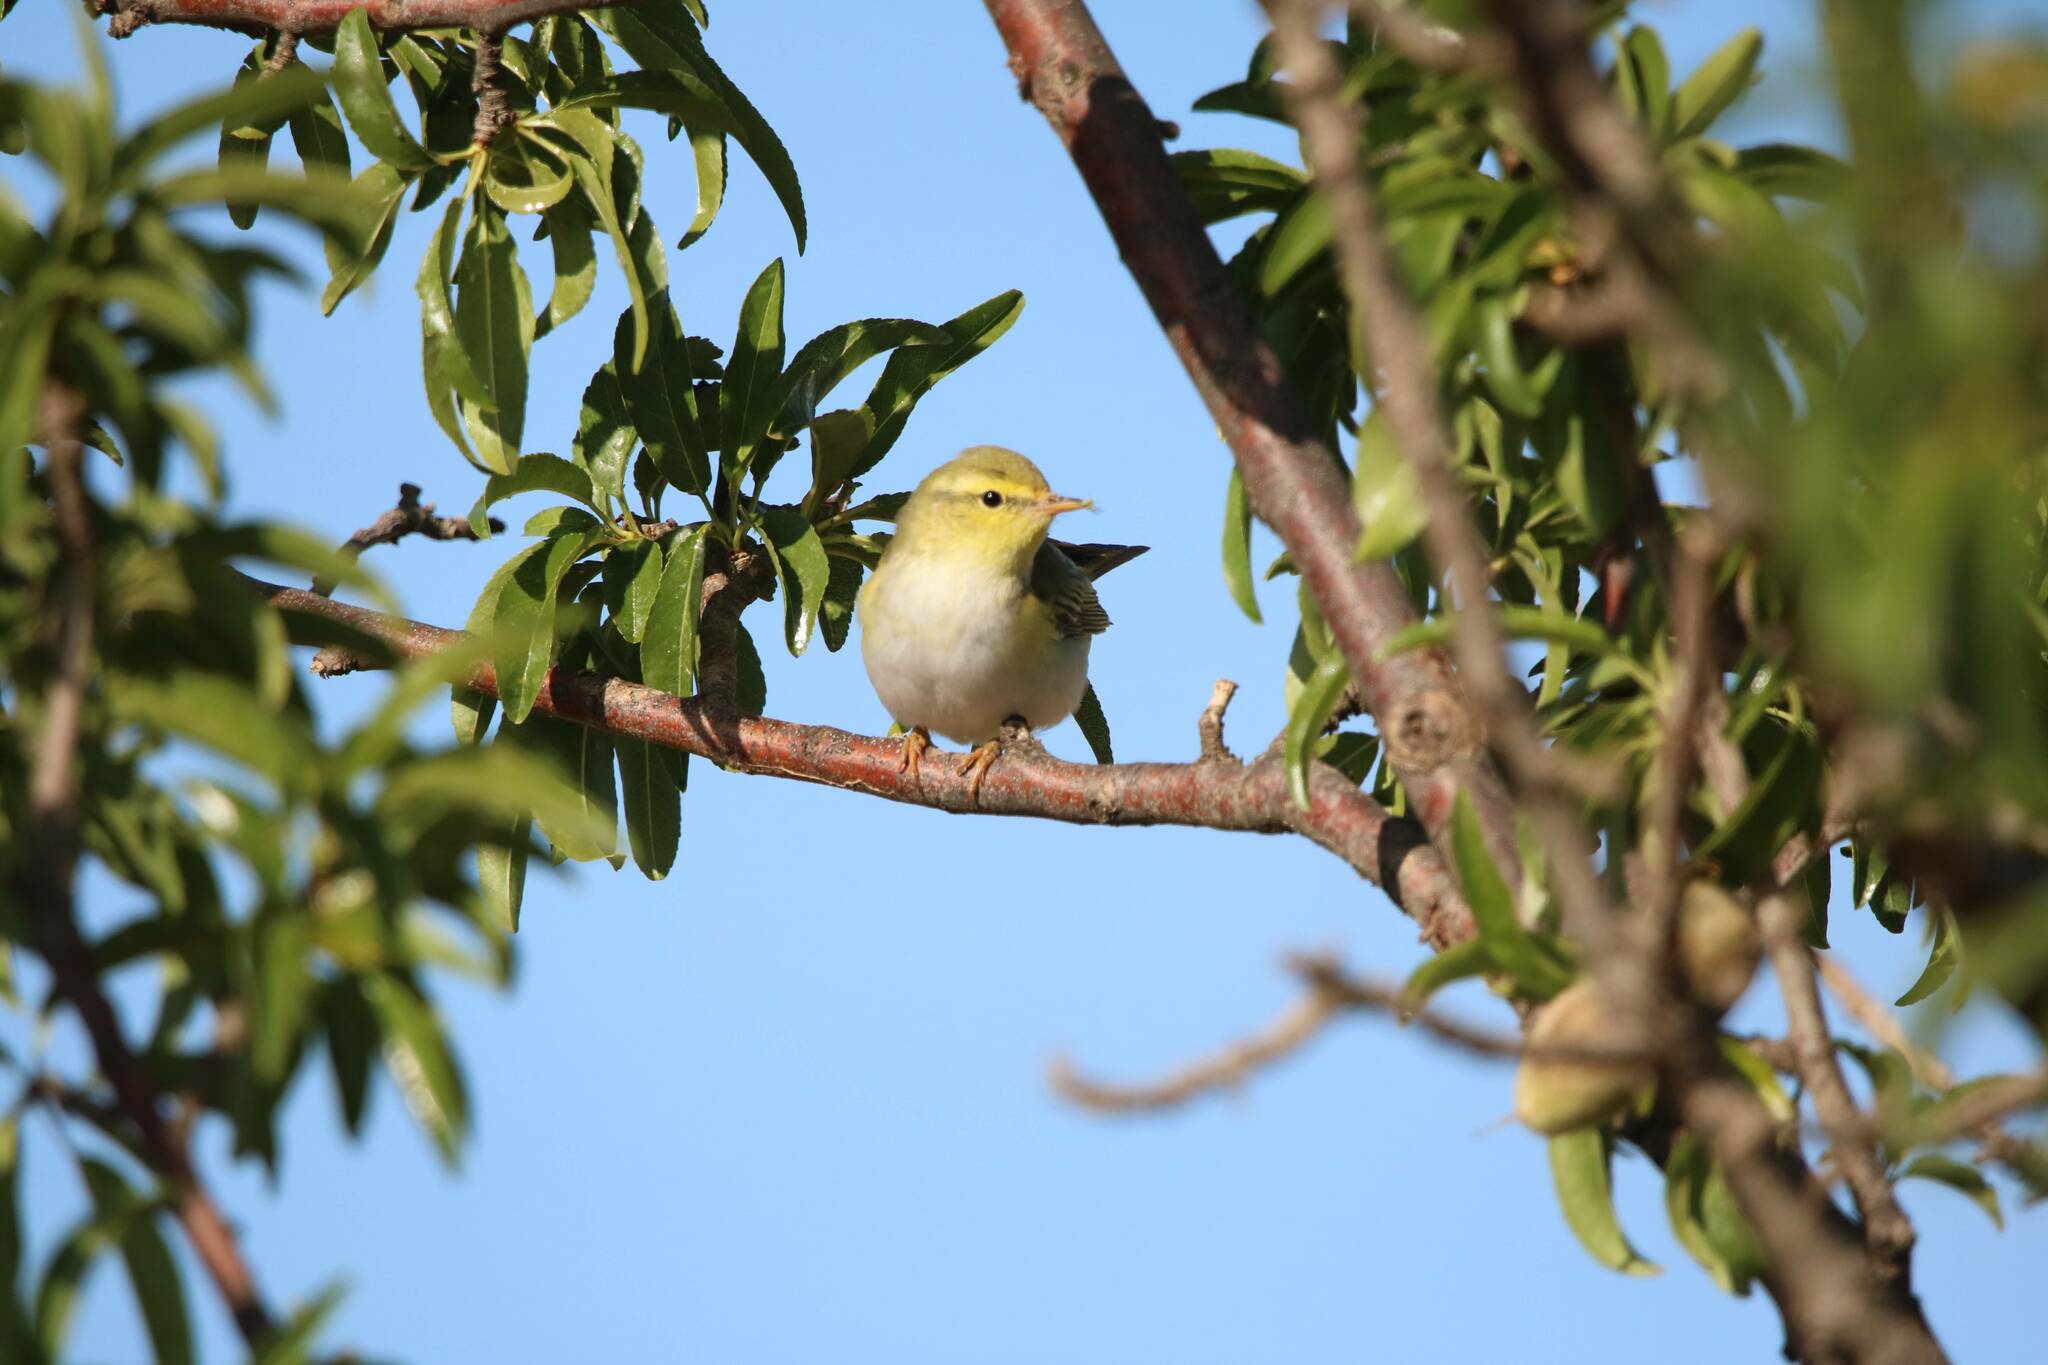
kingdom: Animalia
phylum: Chordata
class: Aves
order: Passeriformes
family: Phylloscopidae
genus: Phylloscopus
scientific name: Phylloscopus sibillatrix
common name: Wood warbler
